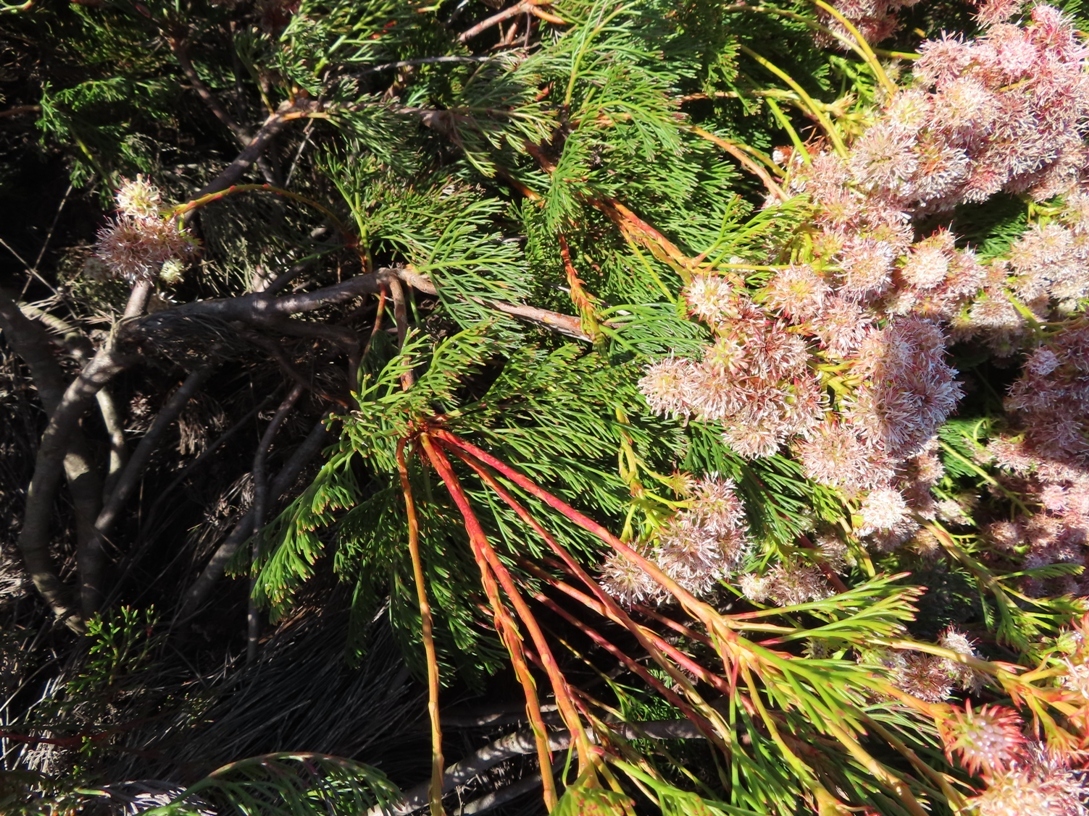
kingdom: Plantae
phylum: Tracheophyta
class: Magnoliopsida
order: Proteales
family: Proteaceae
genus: Serruria
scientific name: Serruria elongata
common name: Long-stalk spiderhead
